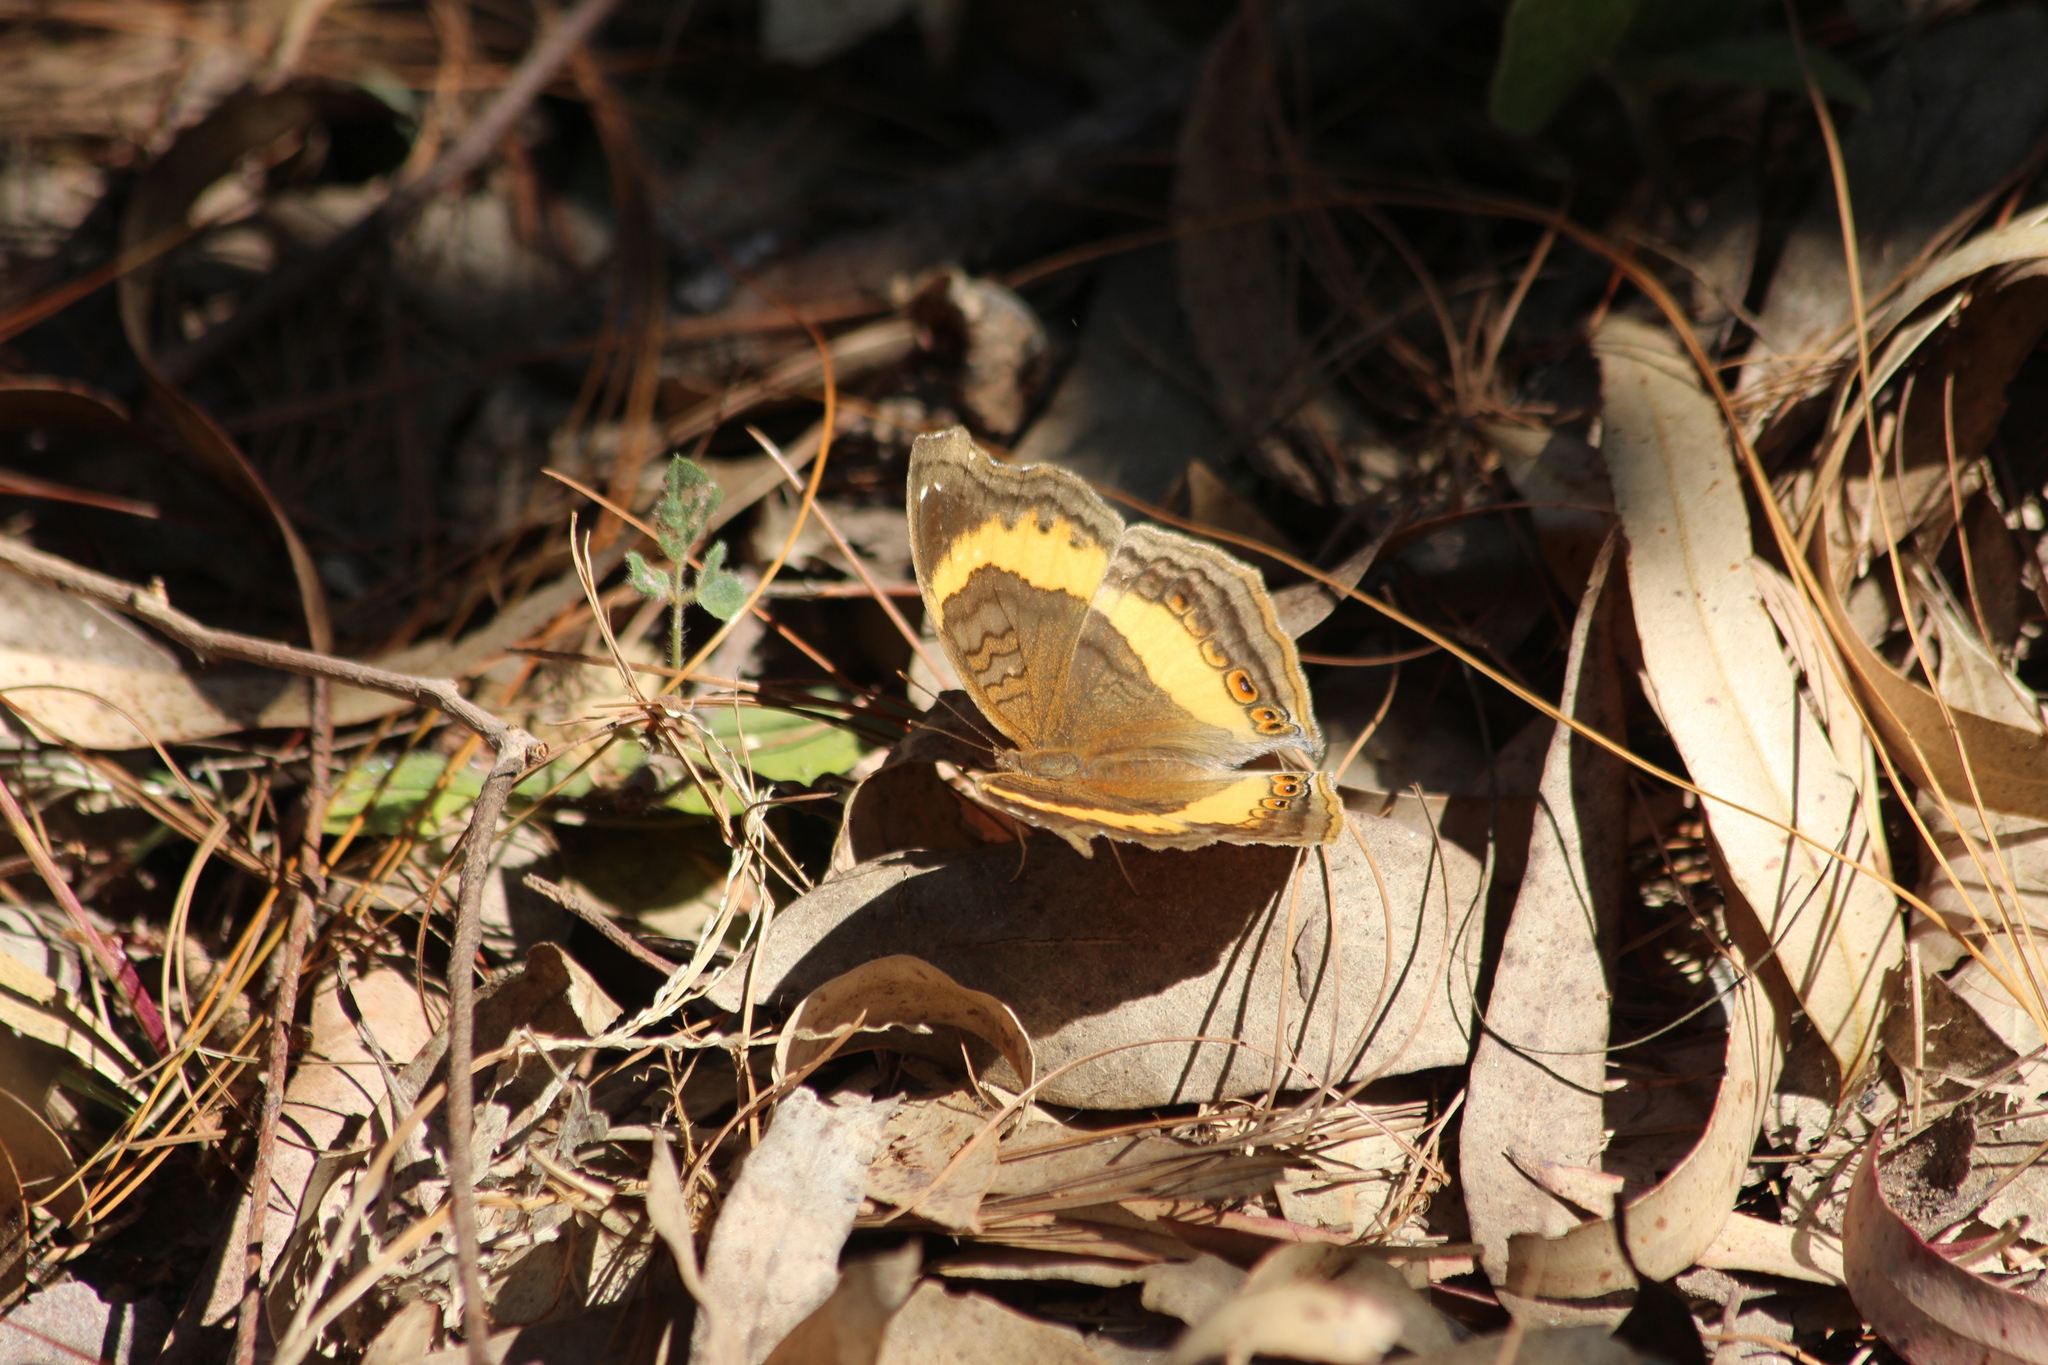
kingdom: Animalia
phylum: Arthropoda
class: Insecta
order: Lepidoptera
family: Nymphalidae
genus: Junonia
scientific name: Junonia terea
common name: Soldier pansy
